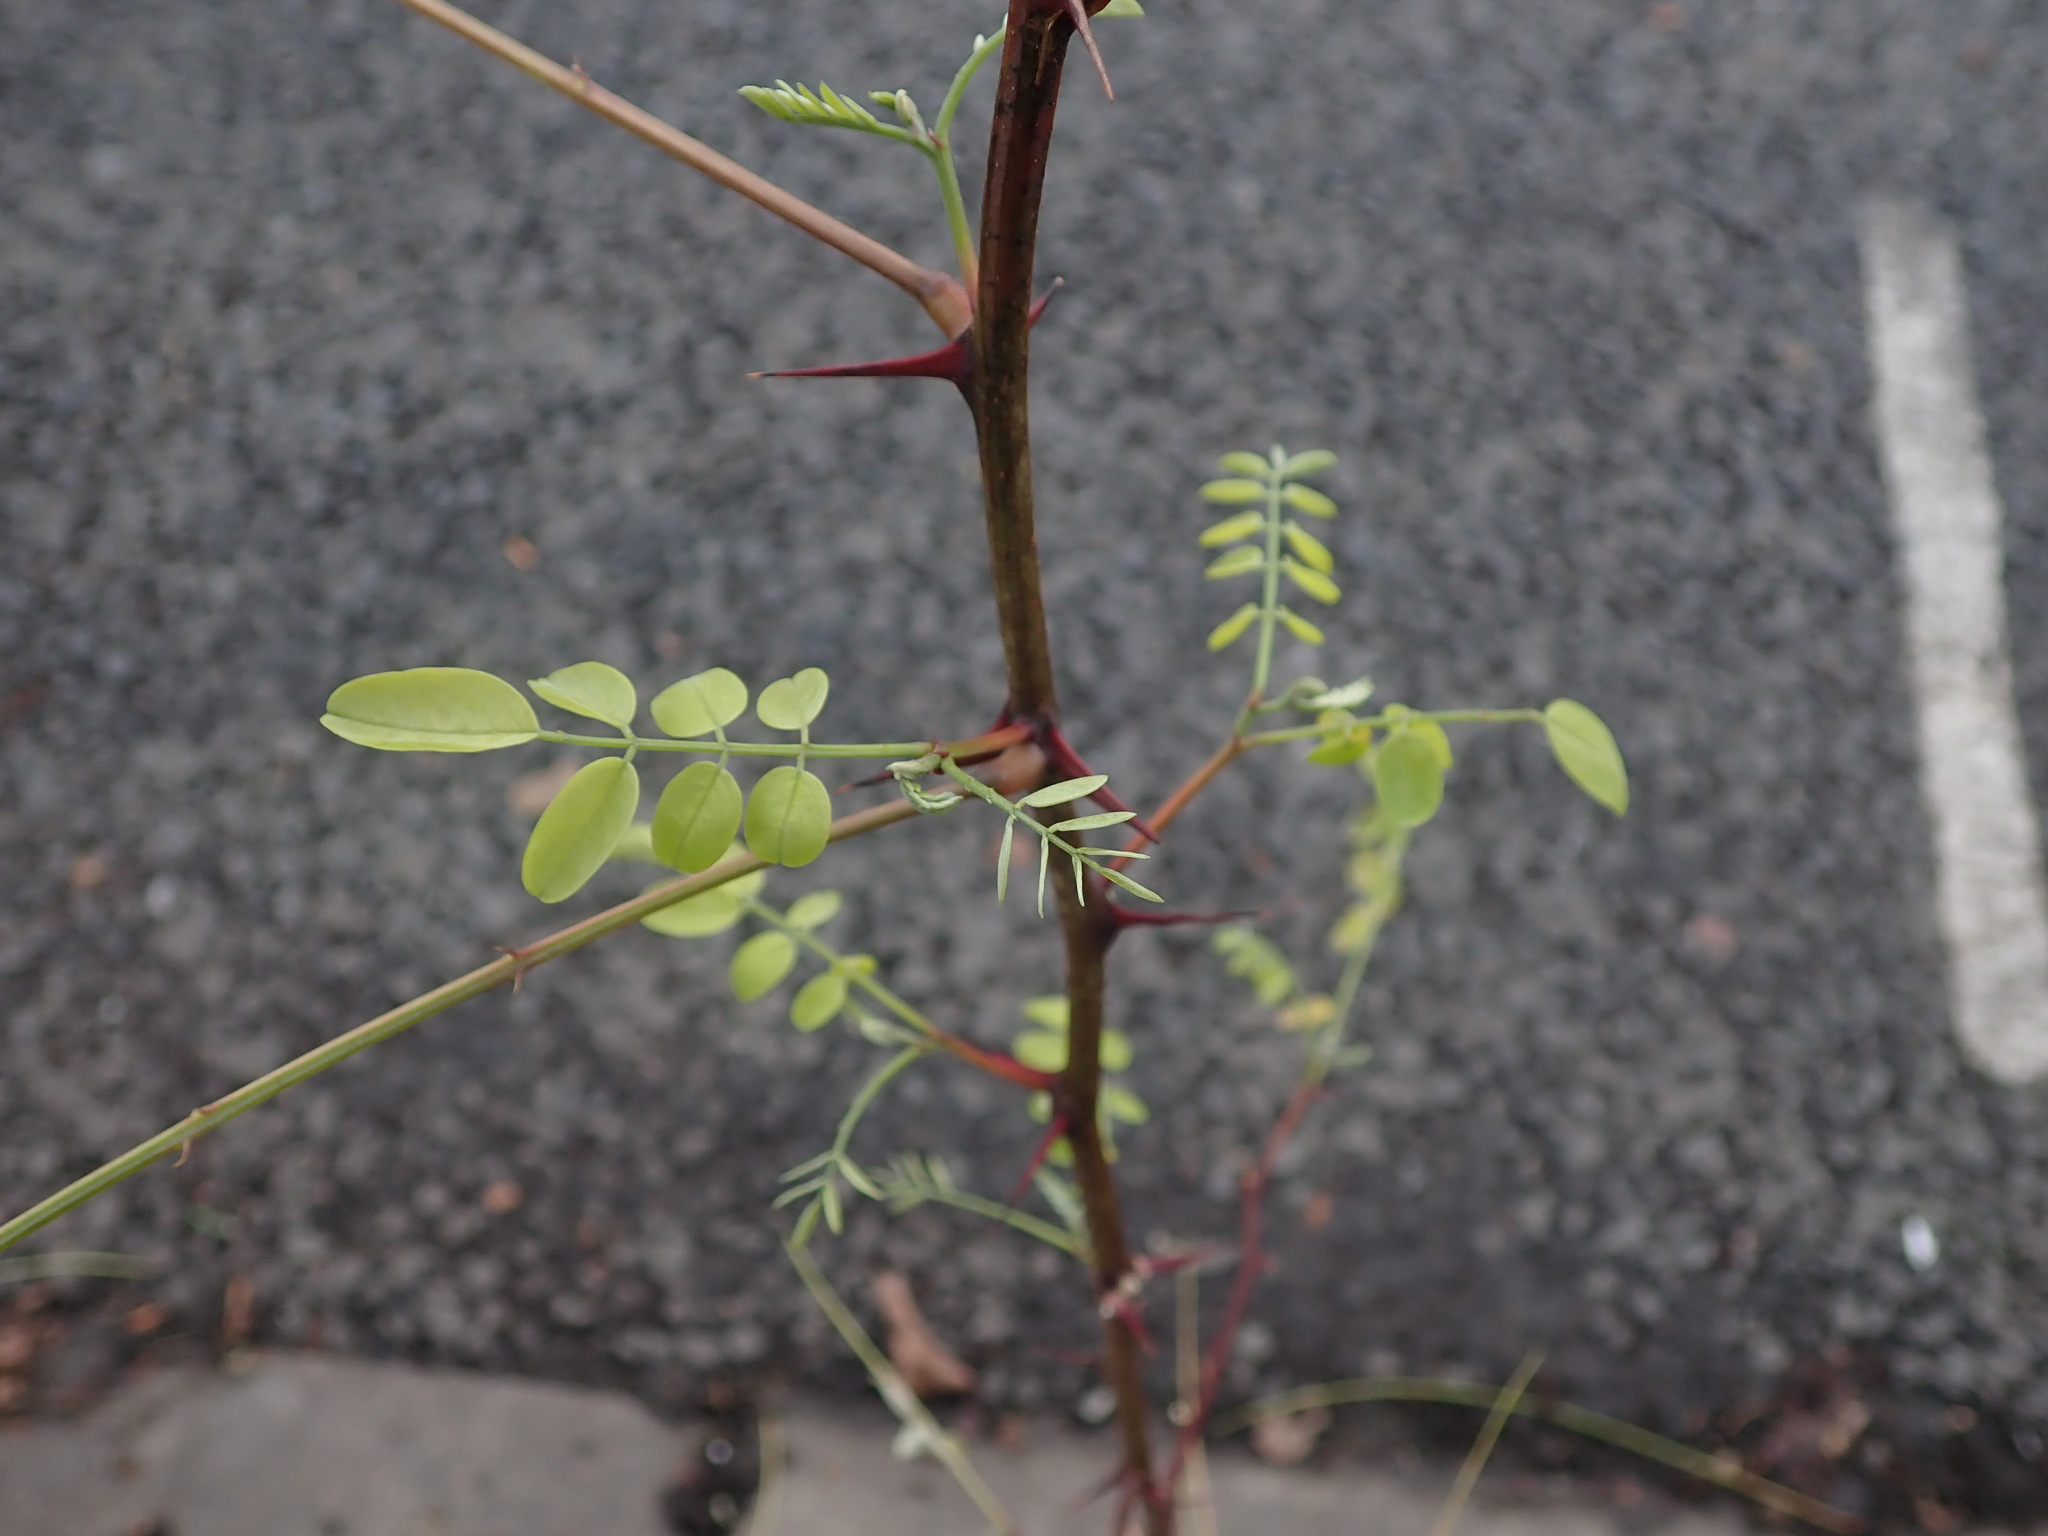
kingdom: Plantae
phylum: Tracheophyta
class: Magnoliopsida
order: Fabales
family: Fabaceae
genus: Robinia
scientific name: Robinia pseudoacacia
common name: Black locust
